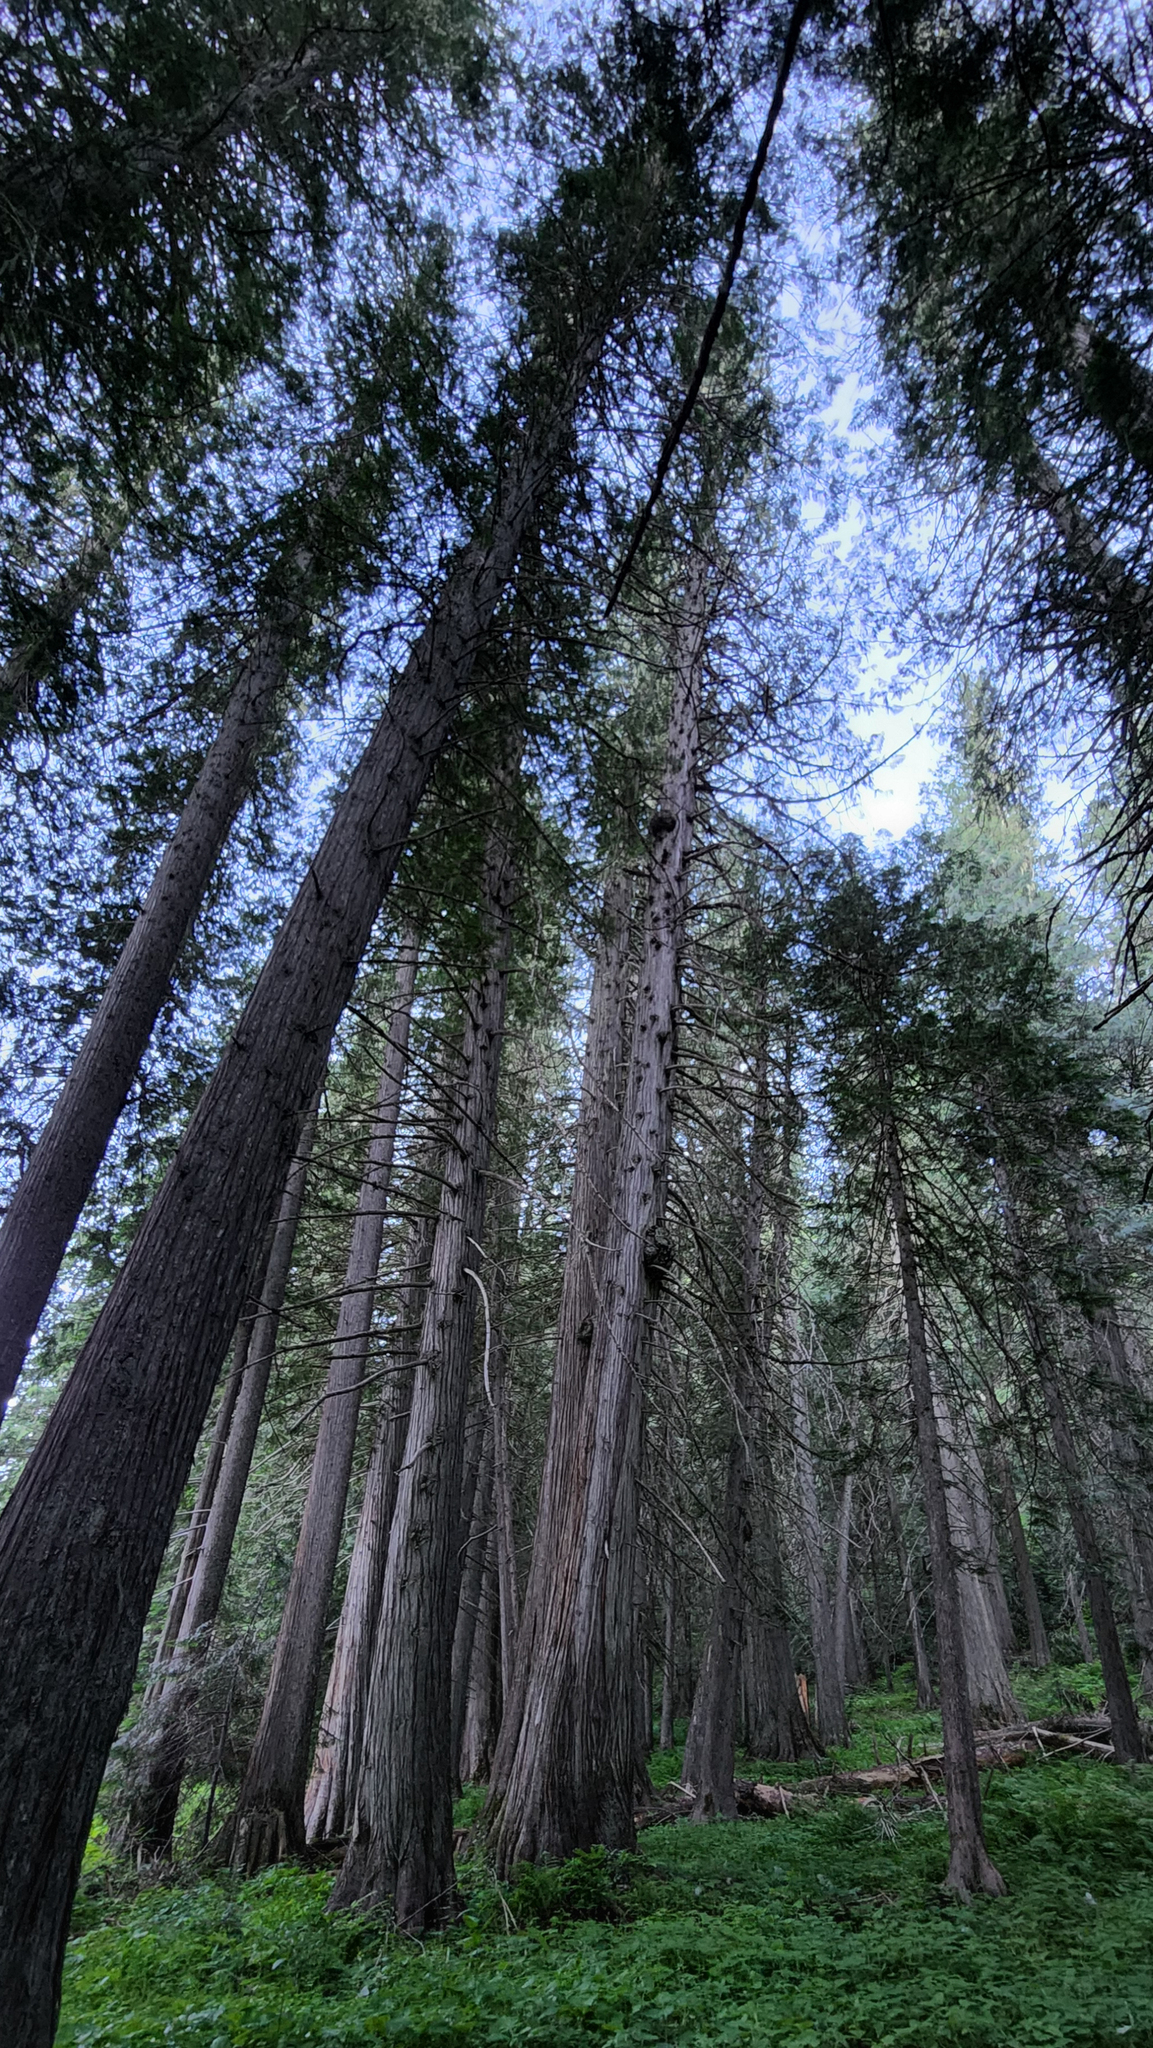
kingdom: Plantae
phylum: Tracheophyta
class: Pinopsida
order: Pinales
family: Cupressaceae
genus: Thuja
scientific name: Thuja plicata
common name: Western red-cedar
